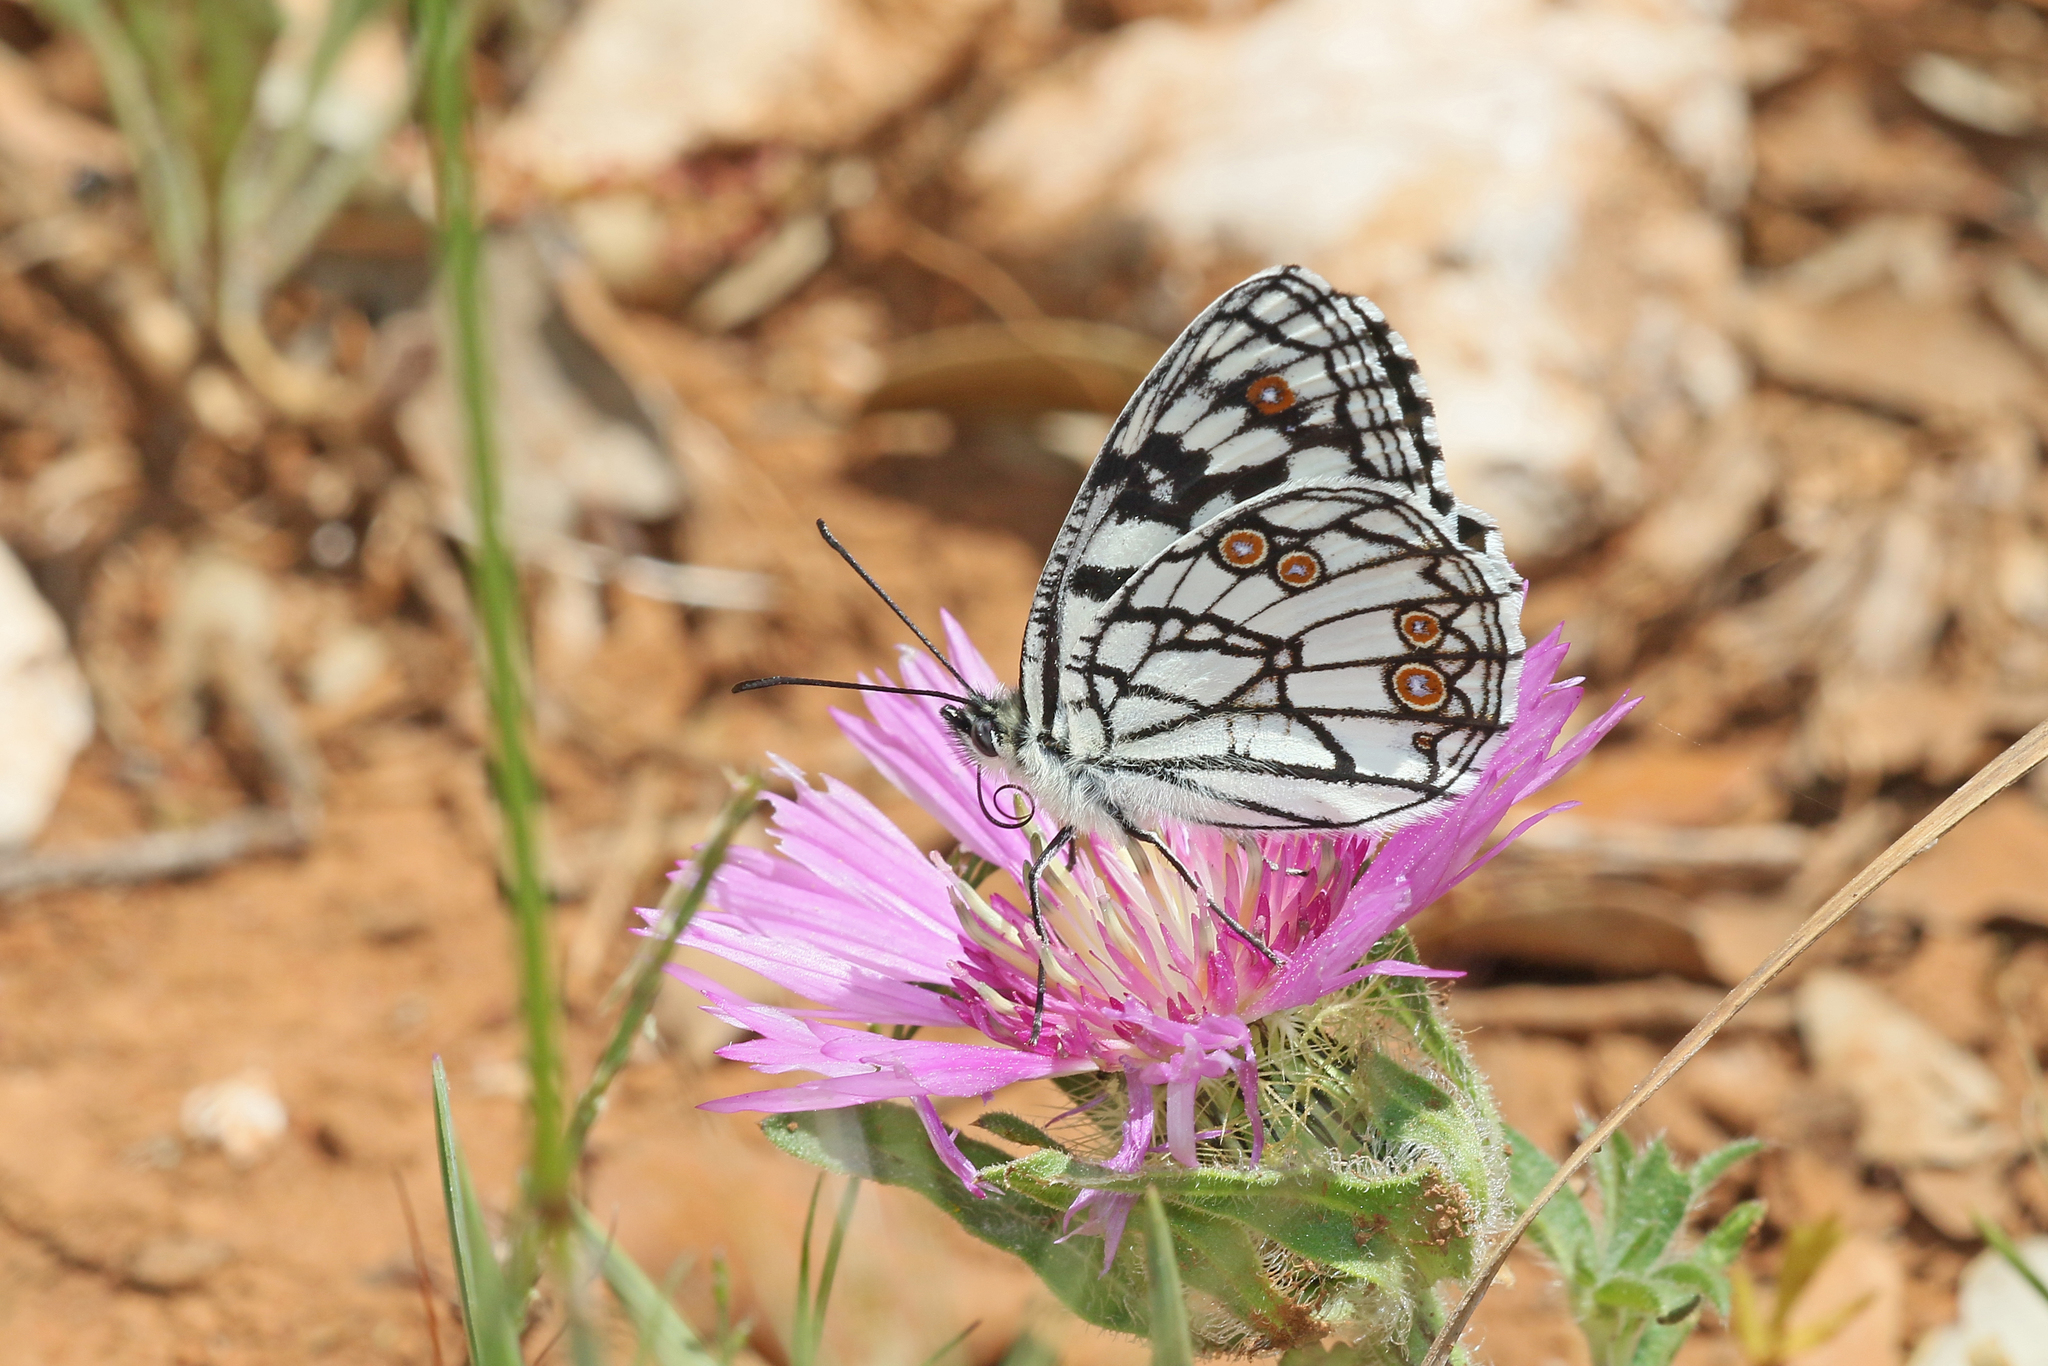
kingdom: Animalia
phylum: Arthropoda
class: Insecta
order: Lepidoptera
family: Nymphalidae
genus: Melanargia
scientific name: Melanargia ines
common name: Spanish marbled white
